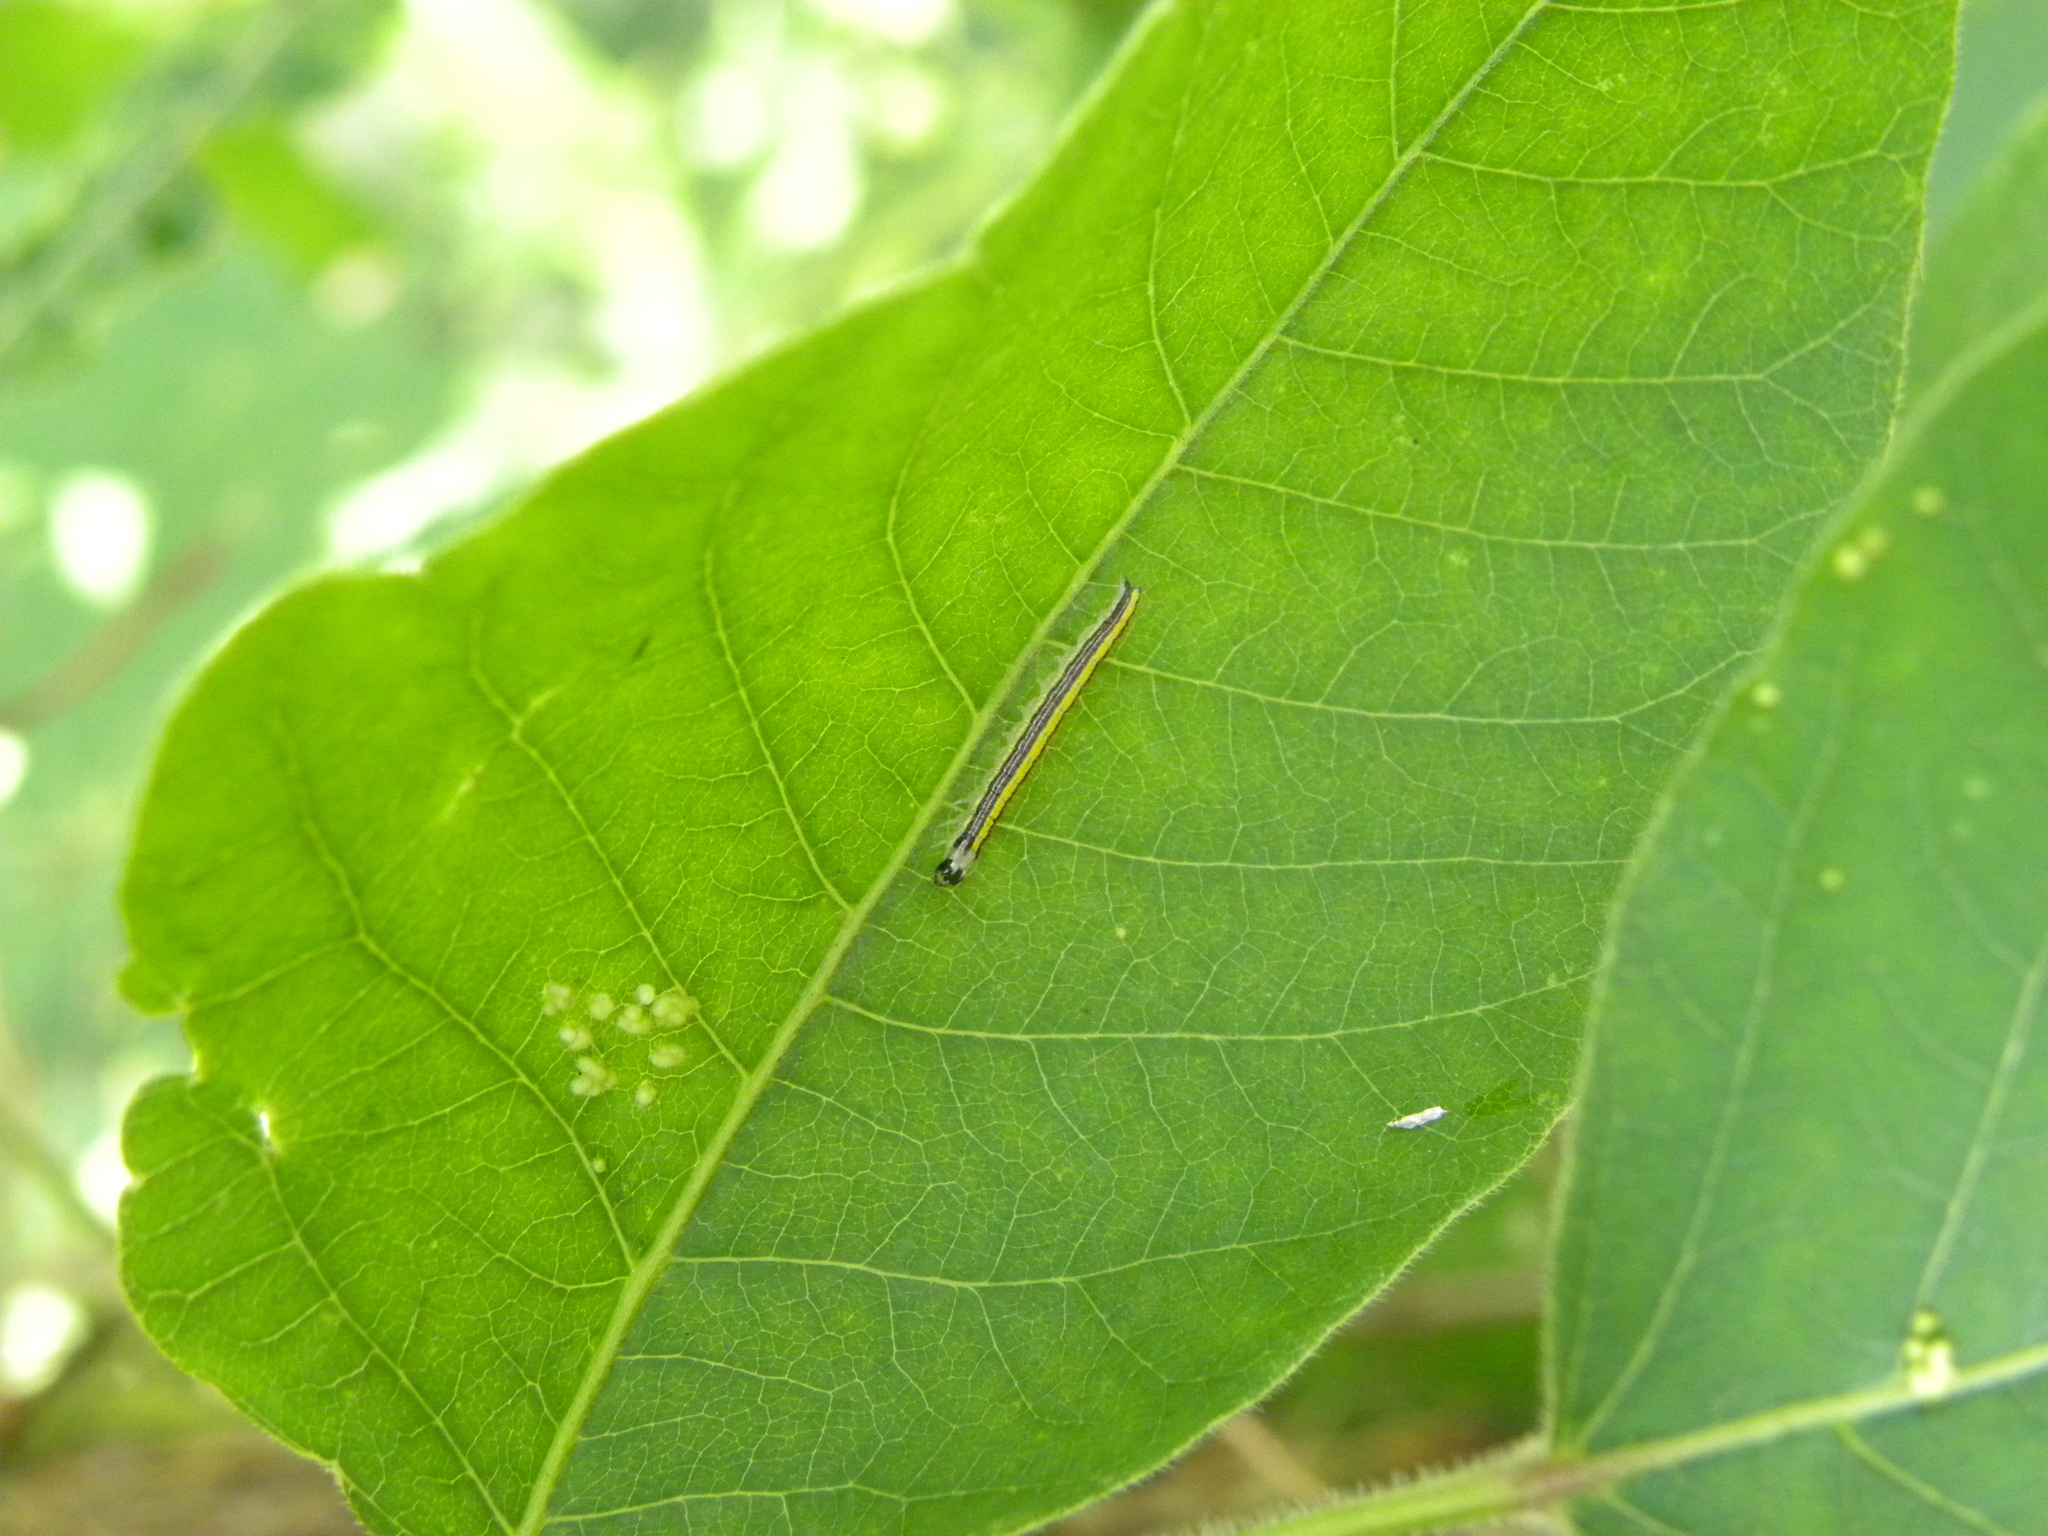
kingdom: Animalia
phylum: Arthropoda
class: Insecta
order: Lepidoptera
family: Pyralidae
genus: Epipaschia
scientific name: Epipaschia superatalis
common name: Dimorphic macalla moth
